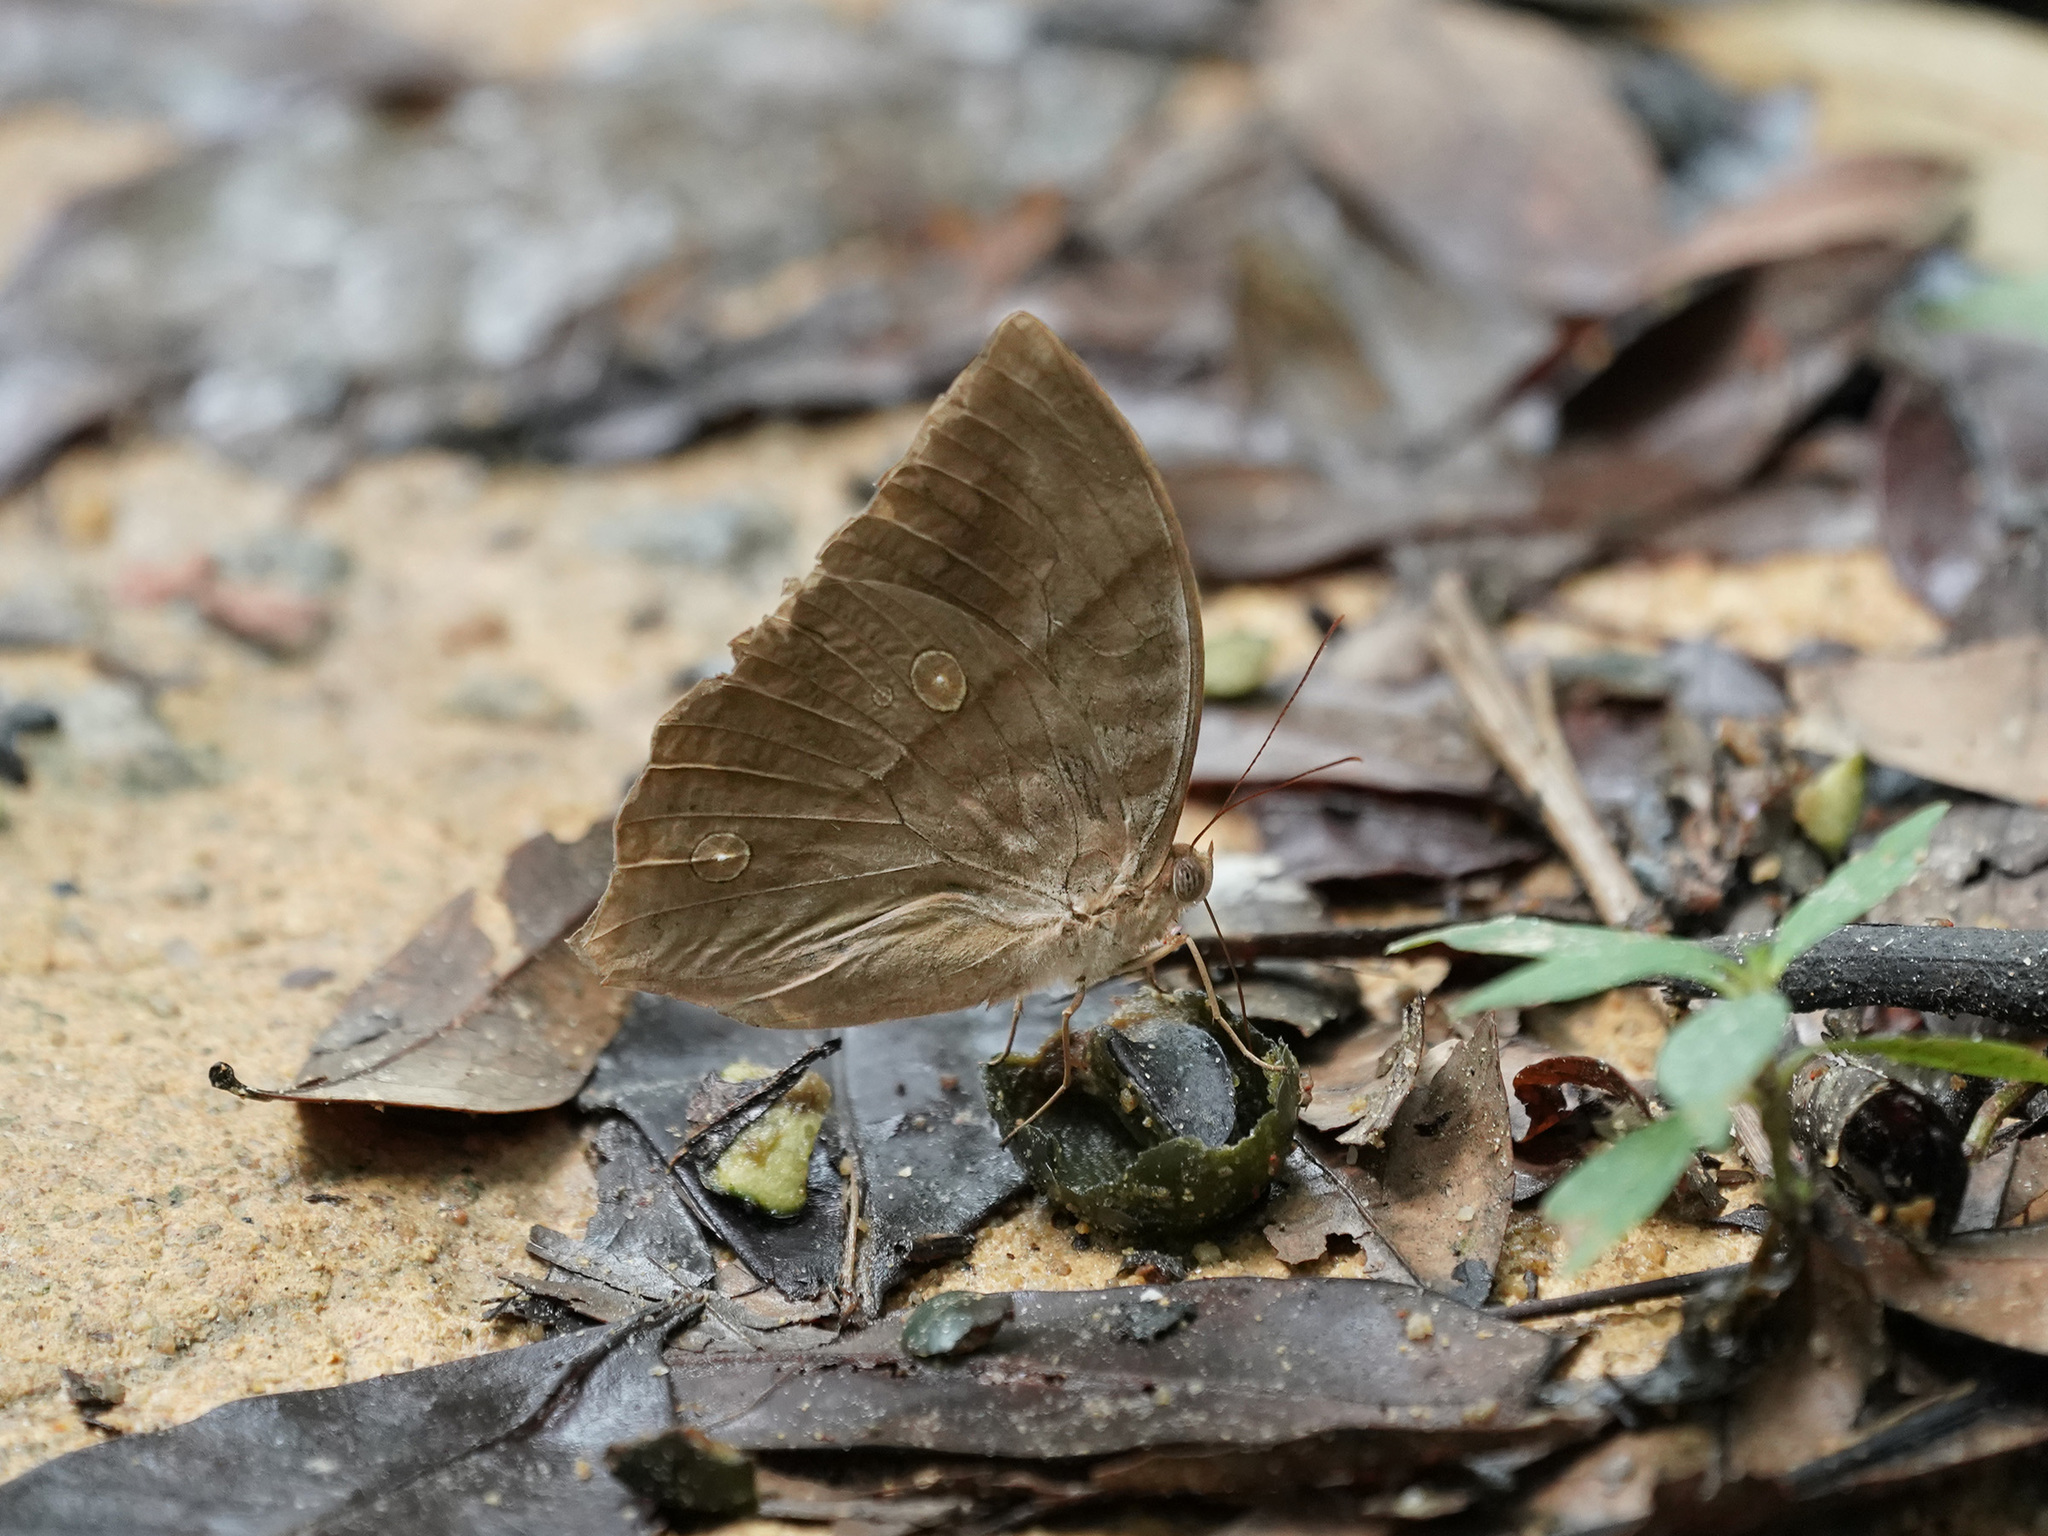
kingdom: Animalia
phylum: Arthropoda
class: Insecta
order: Lepidoptera
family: Nymphalidae
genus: Zeuxidia
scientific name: Zeuxidia amethysta
